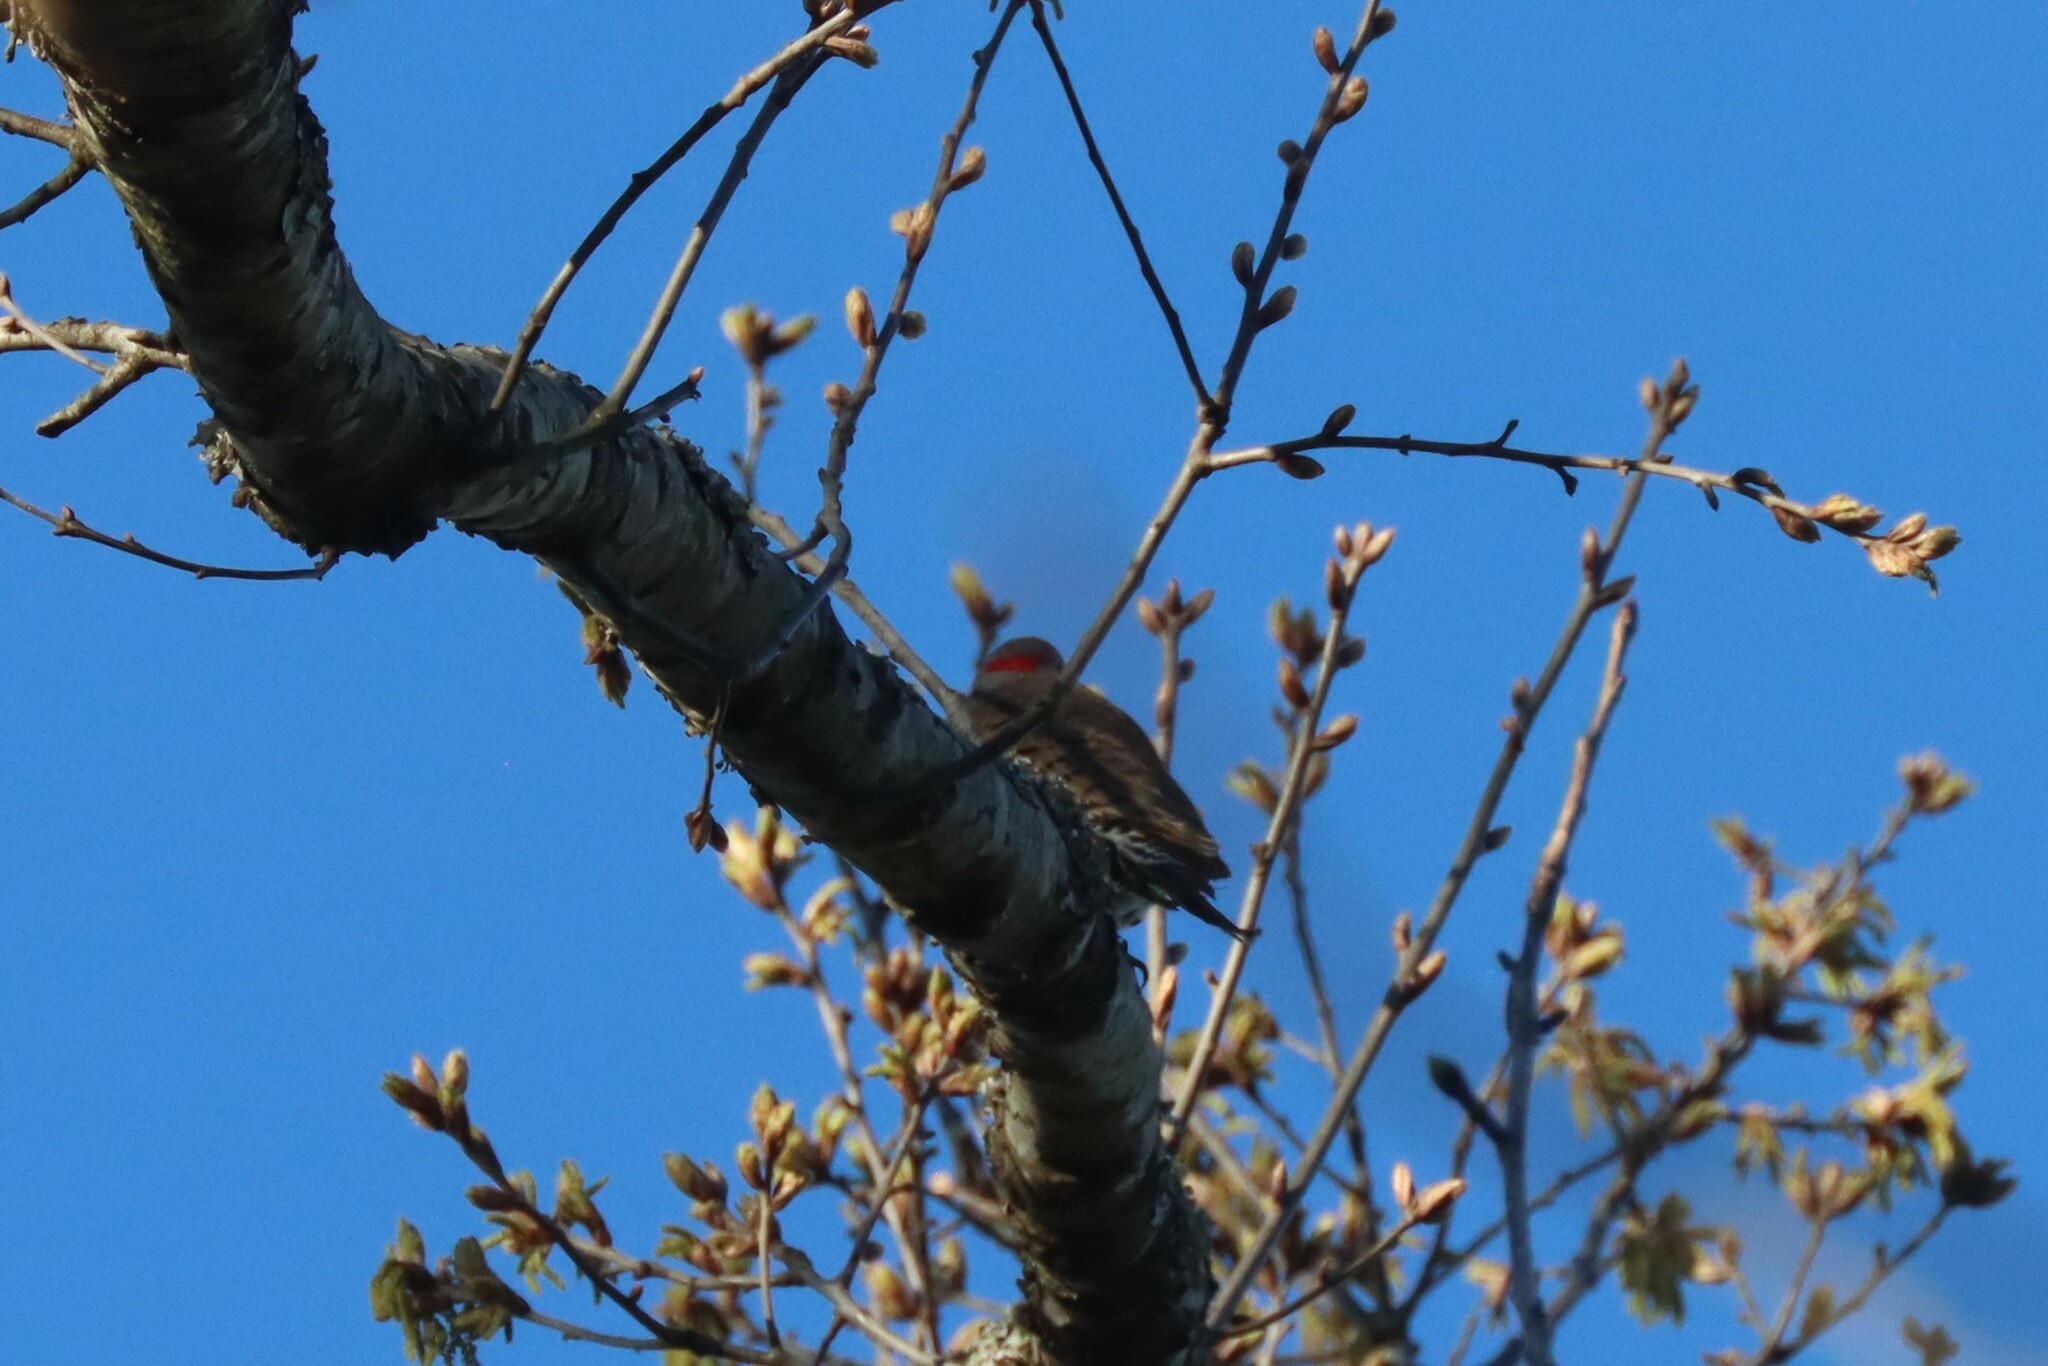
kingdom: Animalia
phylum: Chordata
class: Aves
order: Piciformes
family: Picidae
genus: Colaptes
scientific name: Colaptes auratus
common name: Northern flicker
